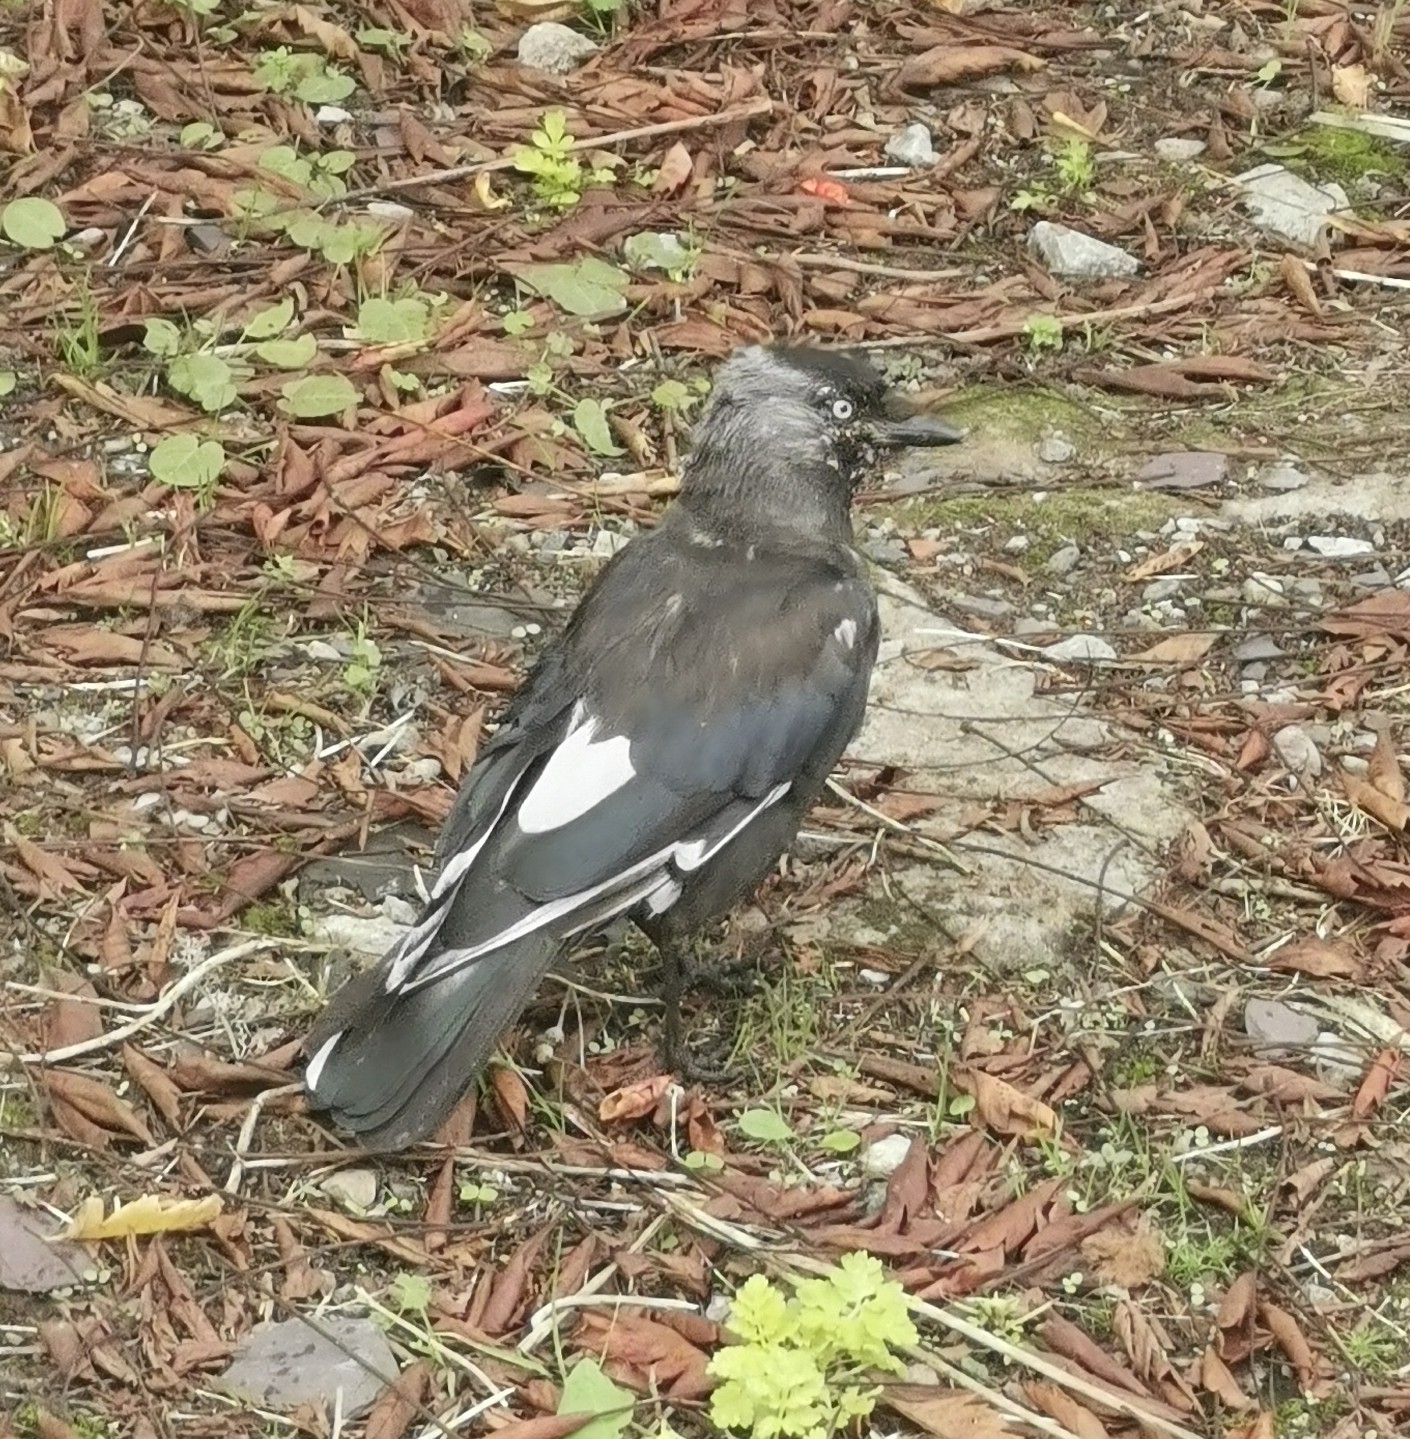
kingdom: Animalia
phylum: Chordata
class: Aves
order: Passeriformes
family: Corvidae
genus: Coloeus
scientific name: Coloeus monedula
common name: Western jackdaw
